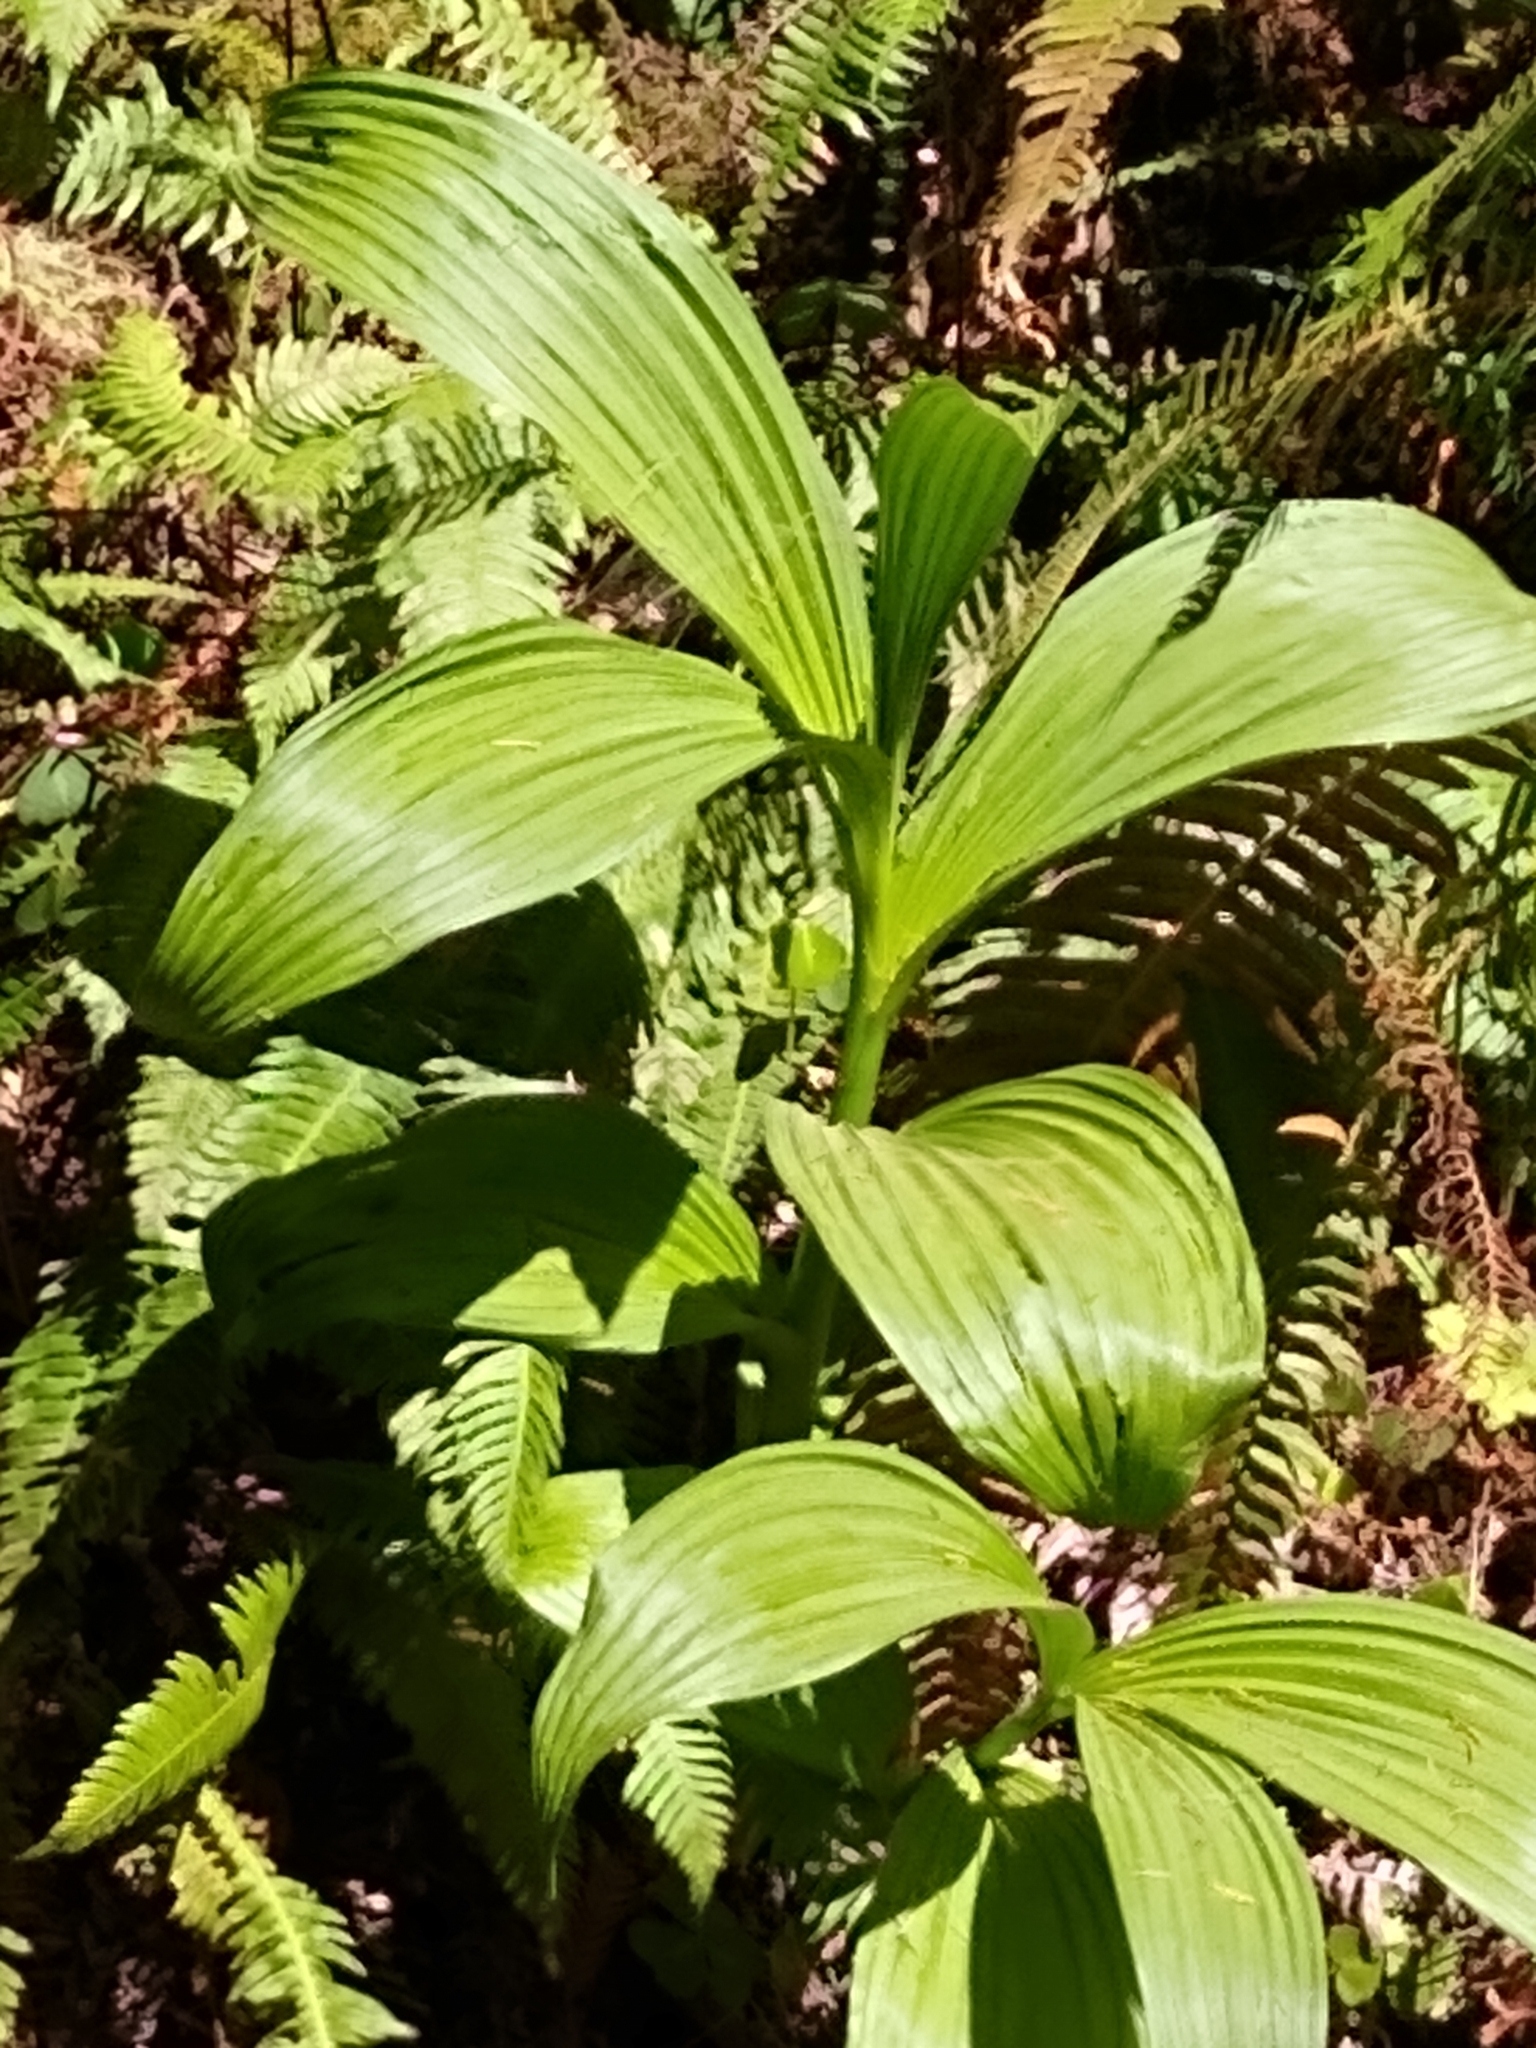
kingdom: Plantae
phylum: Tracheophyta
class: Liliopsida
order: Liliales
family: Melanthiaceae
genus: Veratrum
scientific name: Veratrum fimbriatum
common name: Fringe false hellobore
